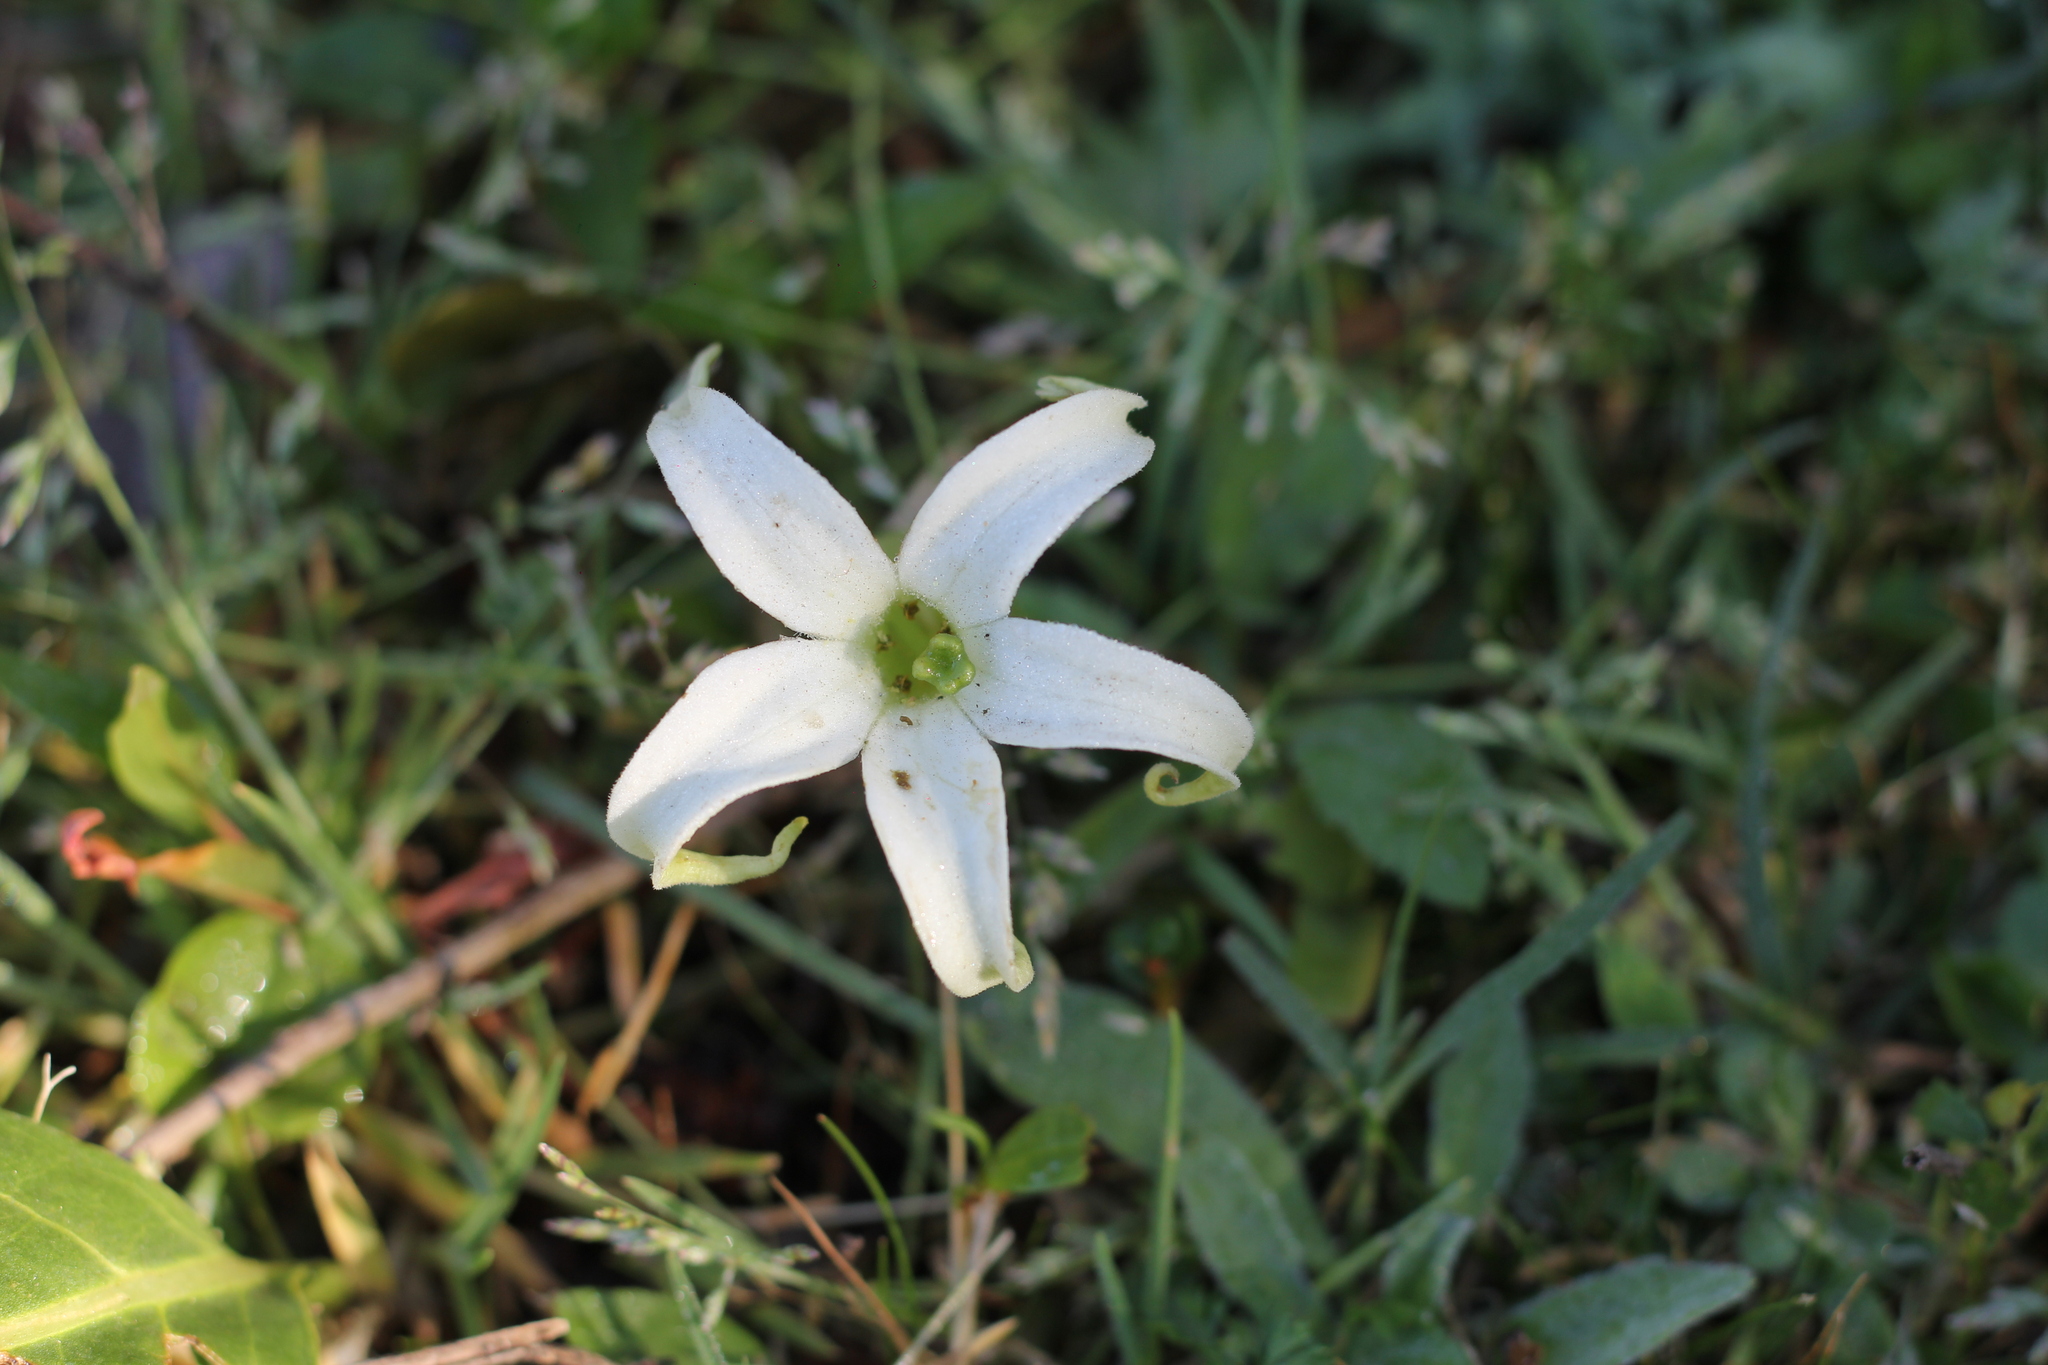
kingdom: Plantae
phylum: Tracheophyta
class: Magnoliopsida
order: Solanales
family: Solanaceae
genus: Jaborosa
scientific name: Jaborosa integrifolia
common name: Springblossom
